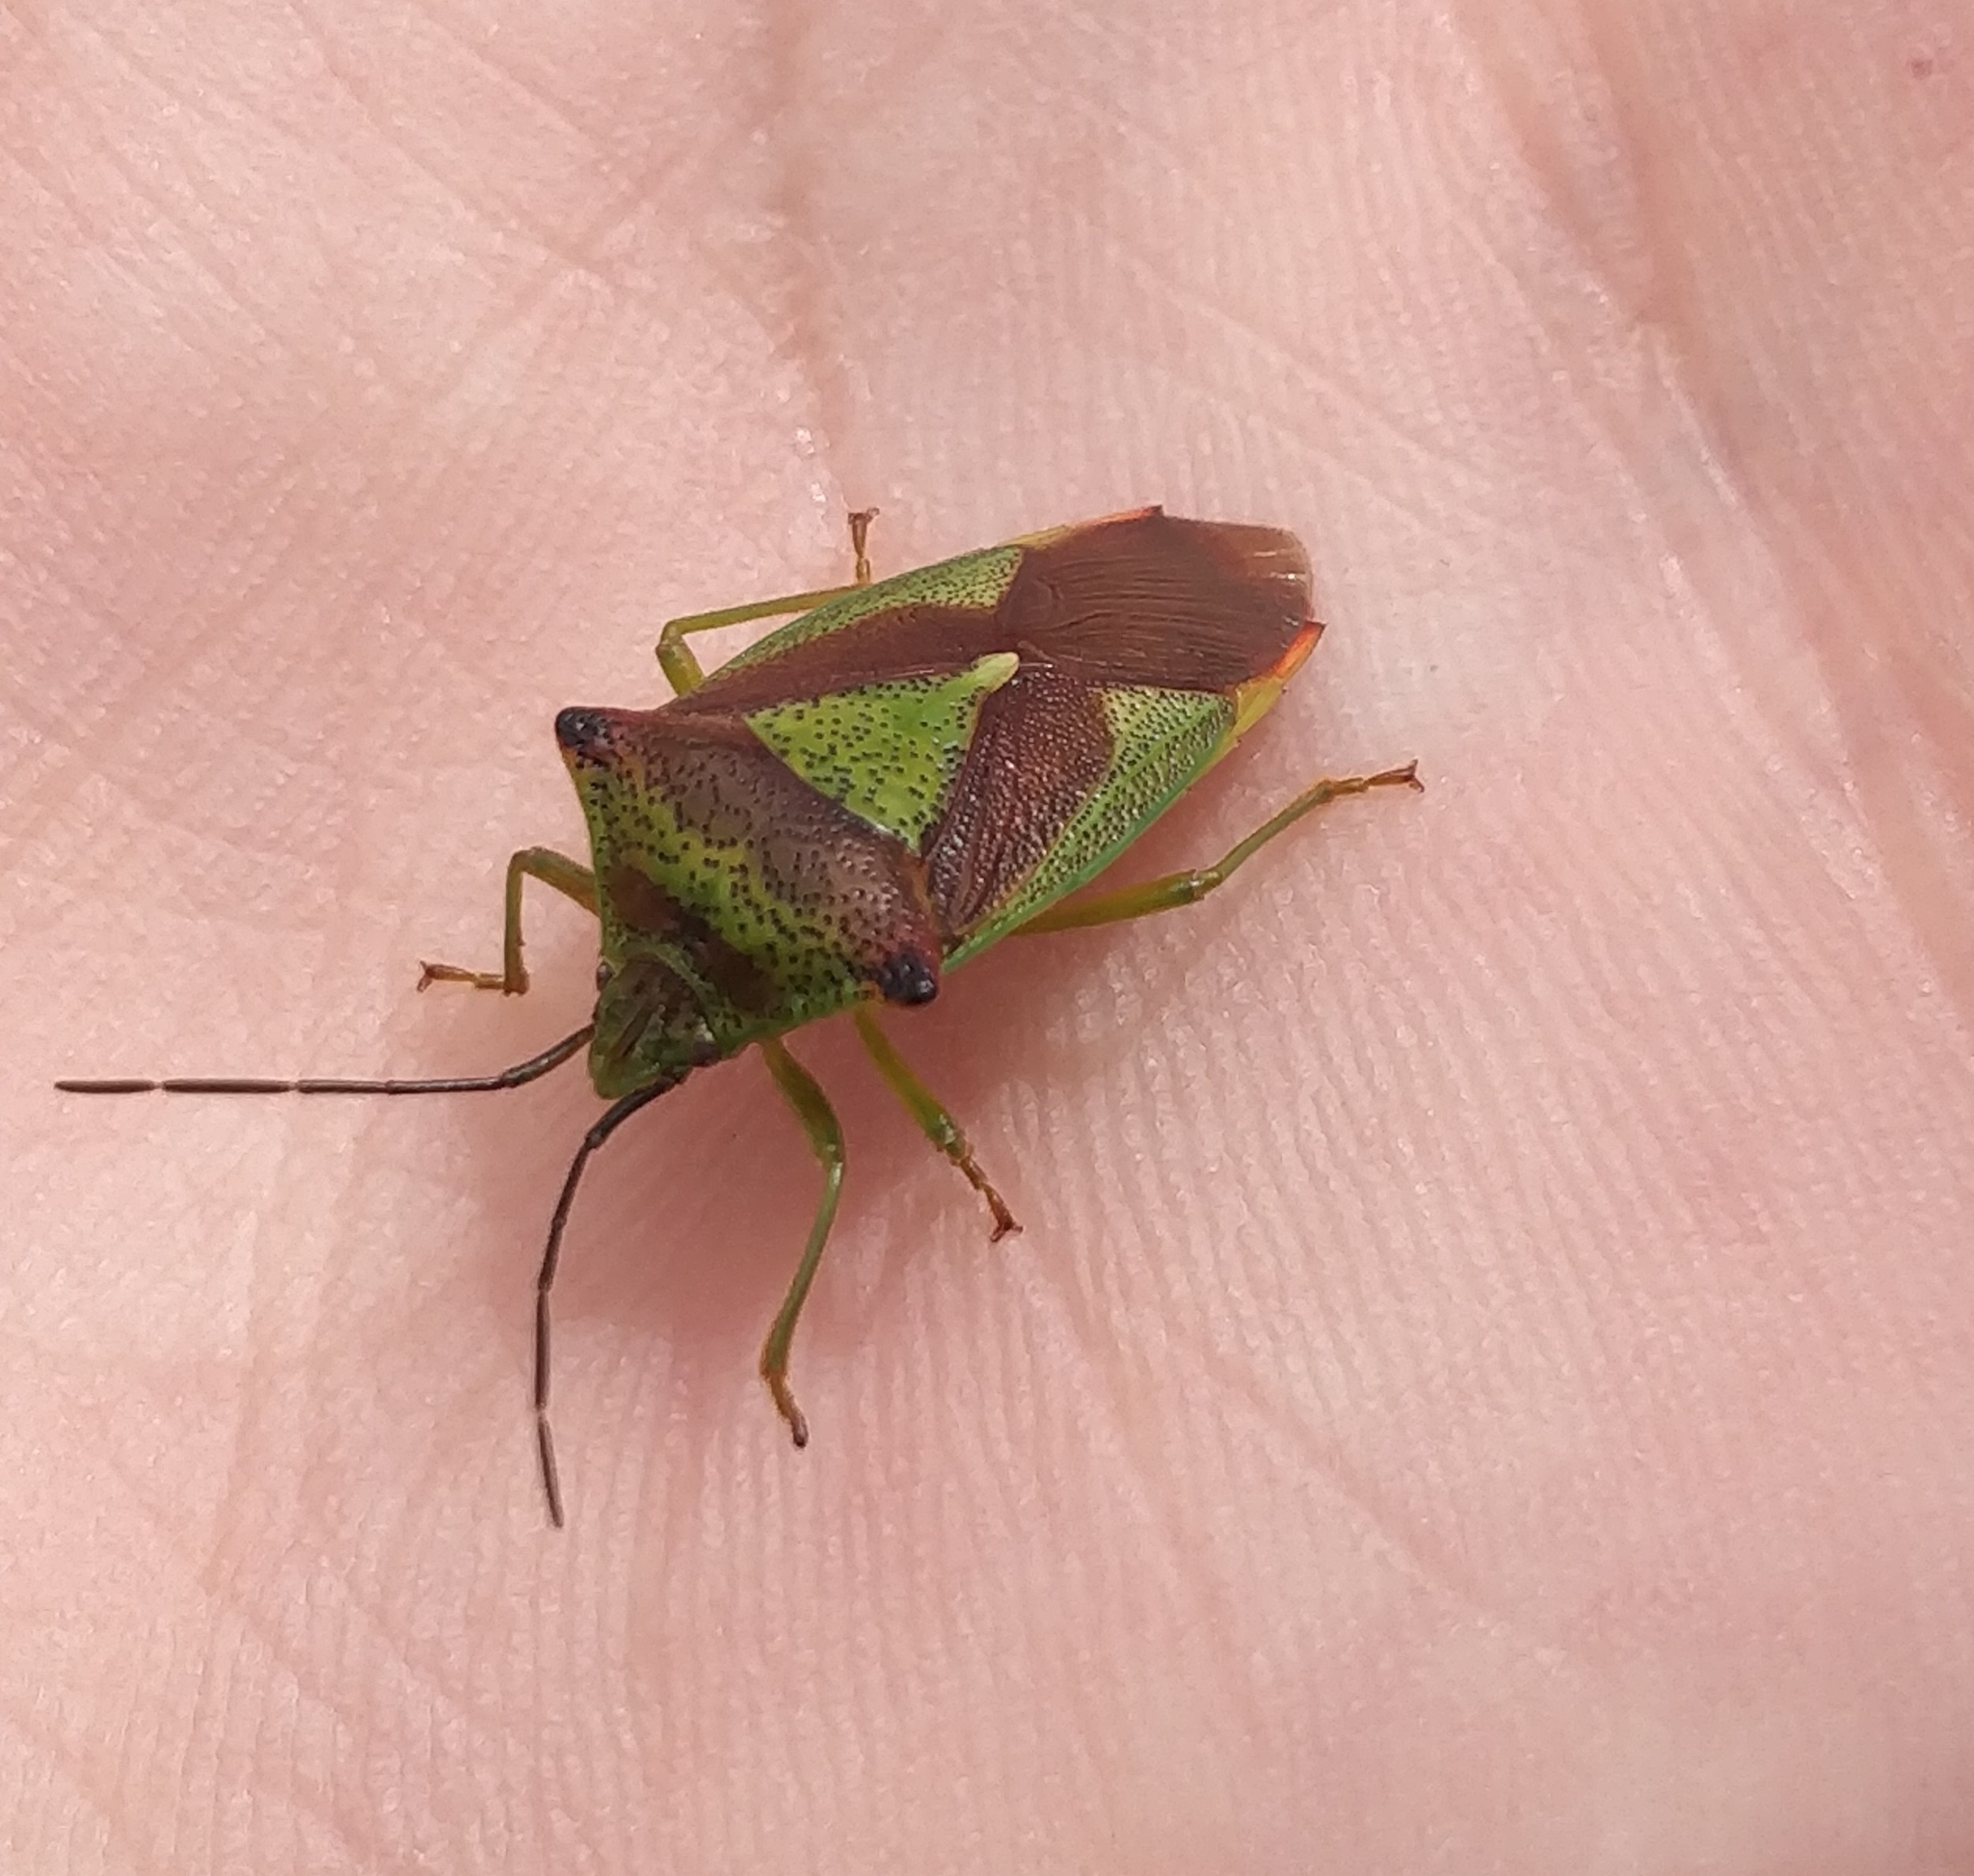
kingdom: Animalia
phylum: Arthropoda
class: Insecta
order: Hemiptera
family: Acanthosomatidae
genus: Acanthosoma
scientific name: Acanthosoma haemorrhoidale
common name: Hawthorn shieldbug
